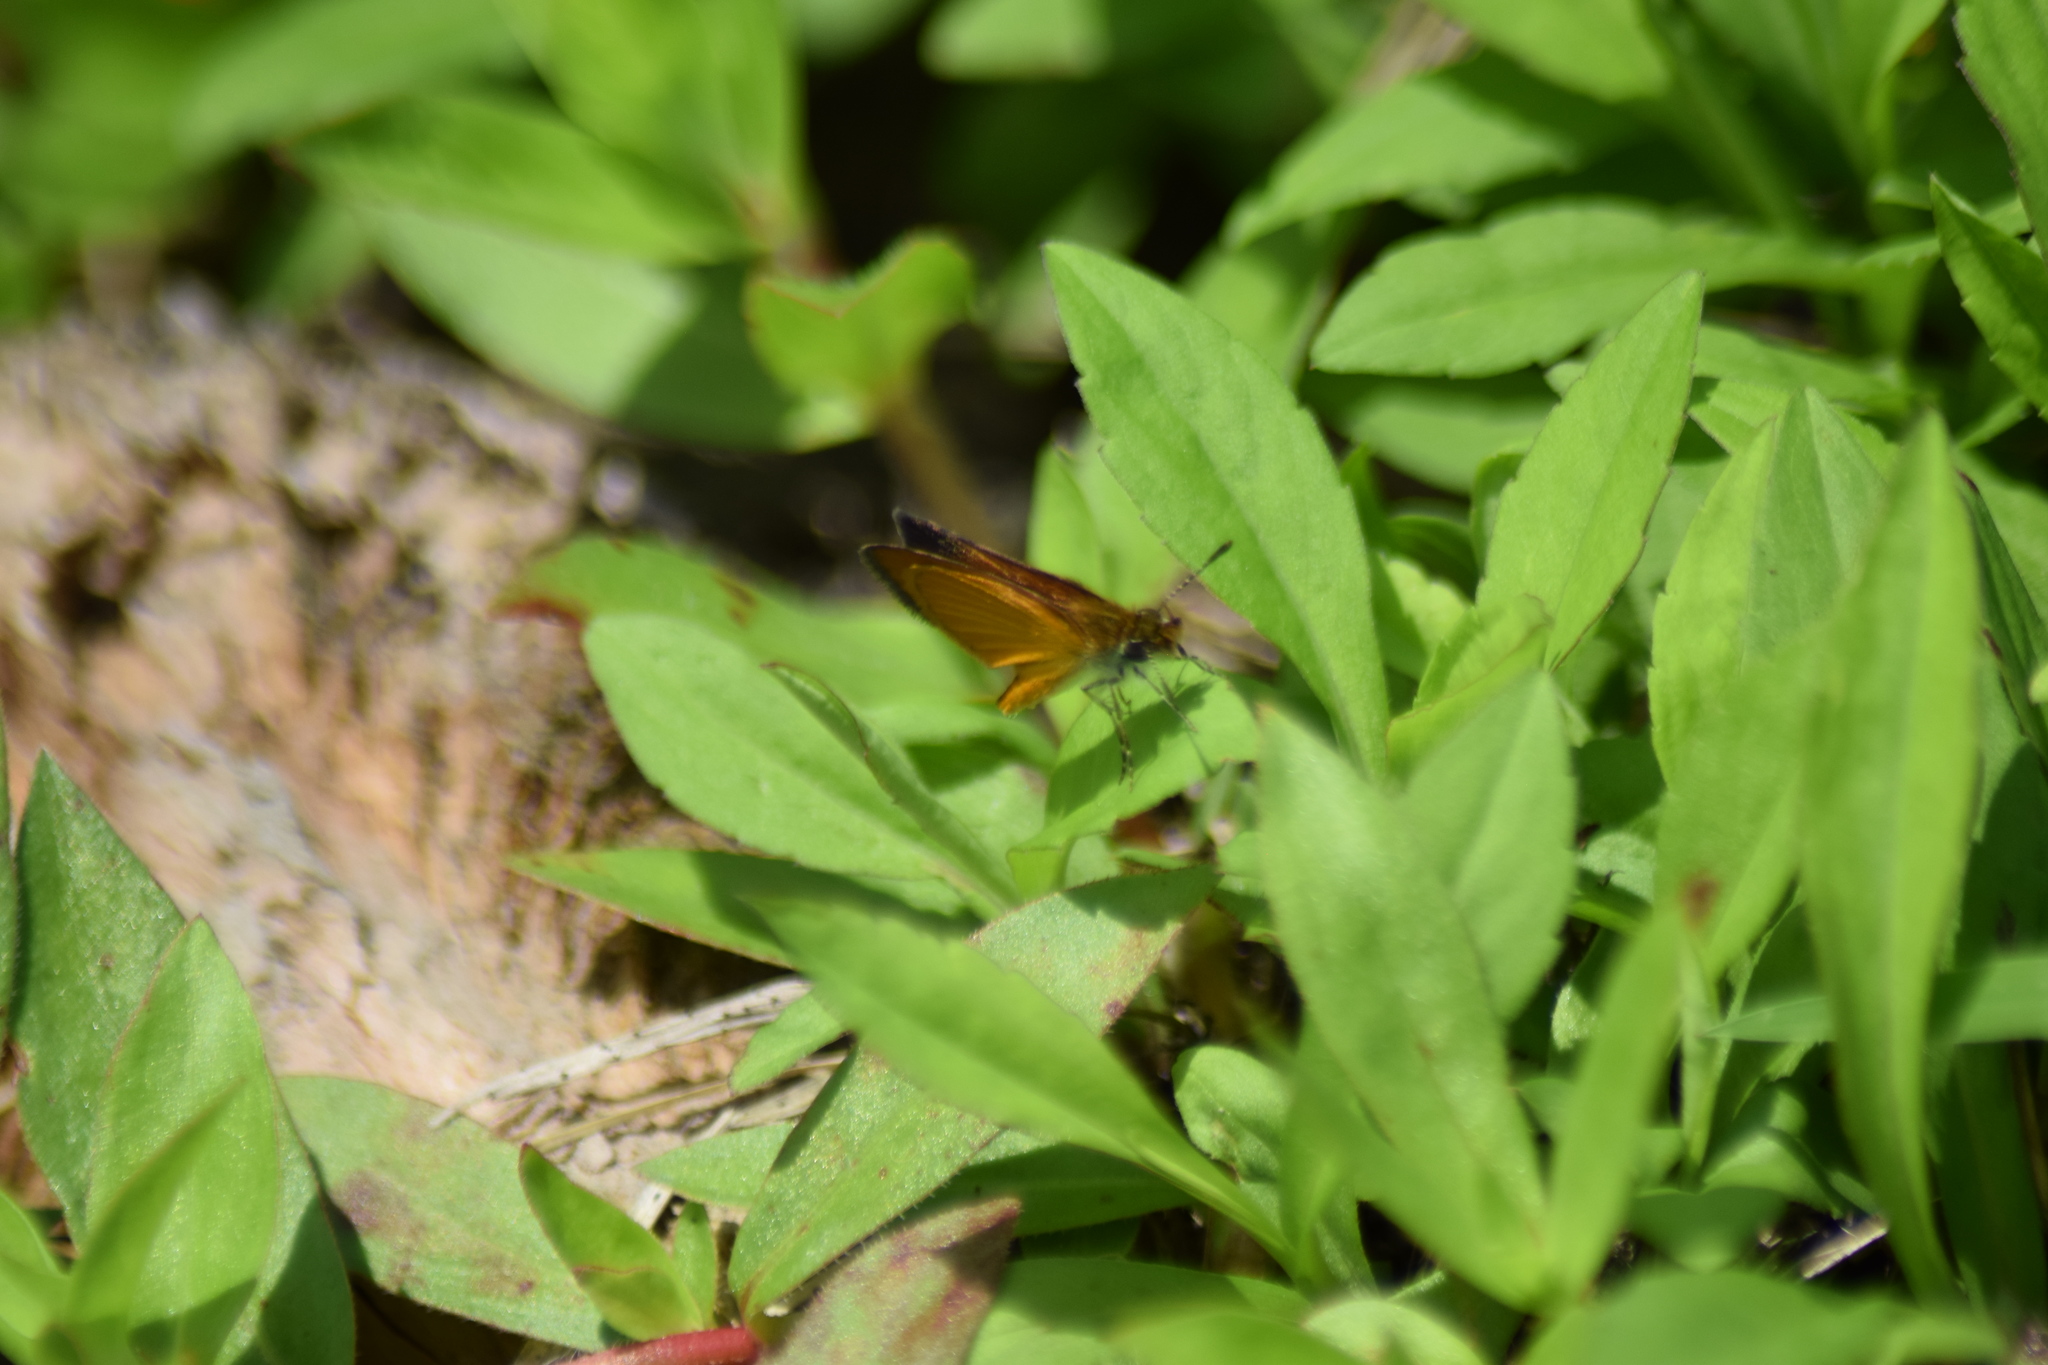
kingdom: Animalia
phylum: Arthropoda
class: Insecta
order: Lepidoptera
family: Hesperiidae
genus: Ancyloxypha
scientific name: Ancyloxypha numitor
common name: Least skipper
